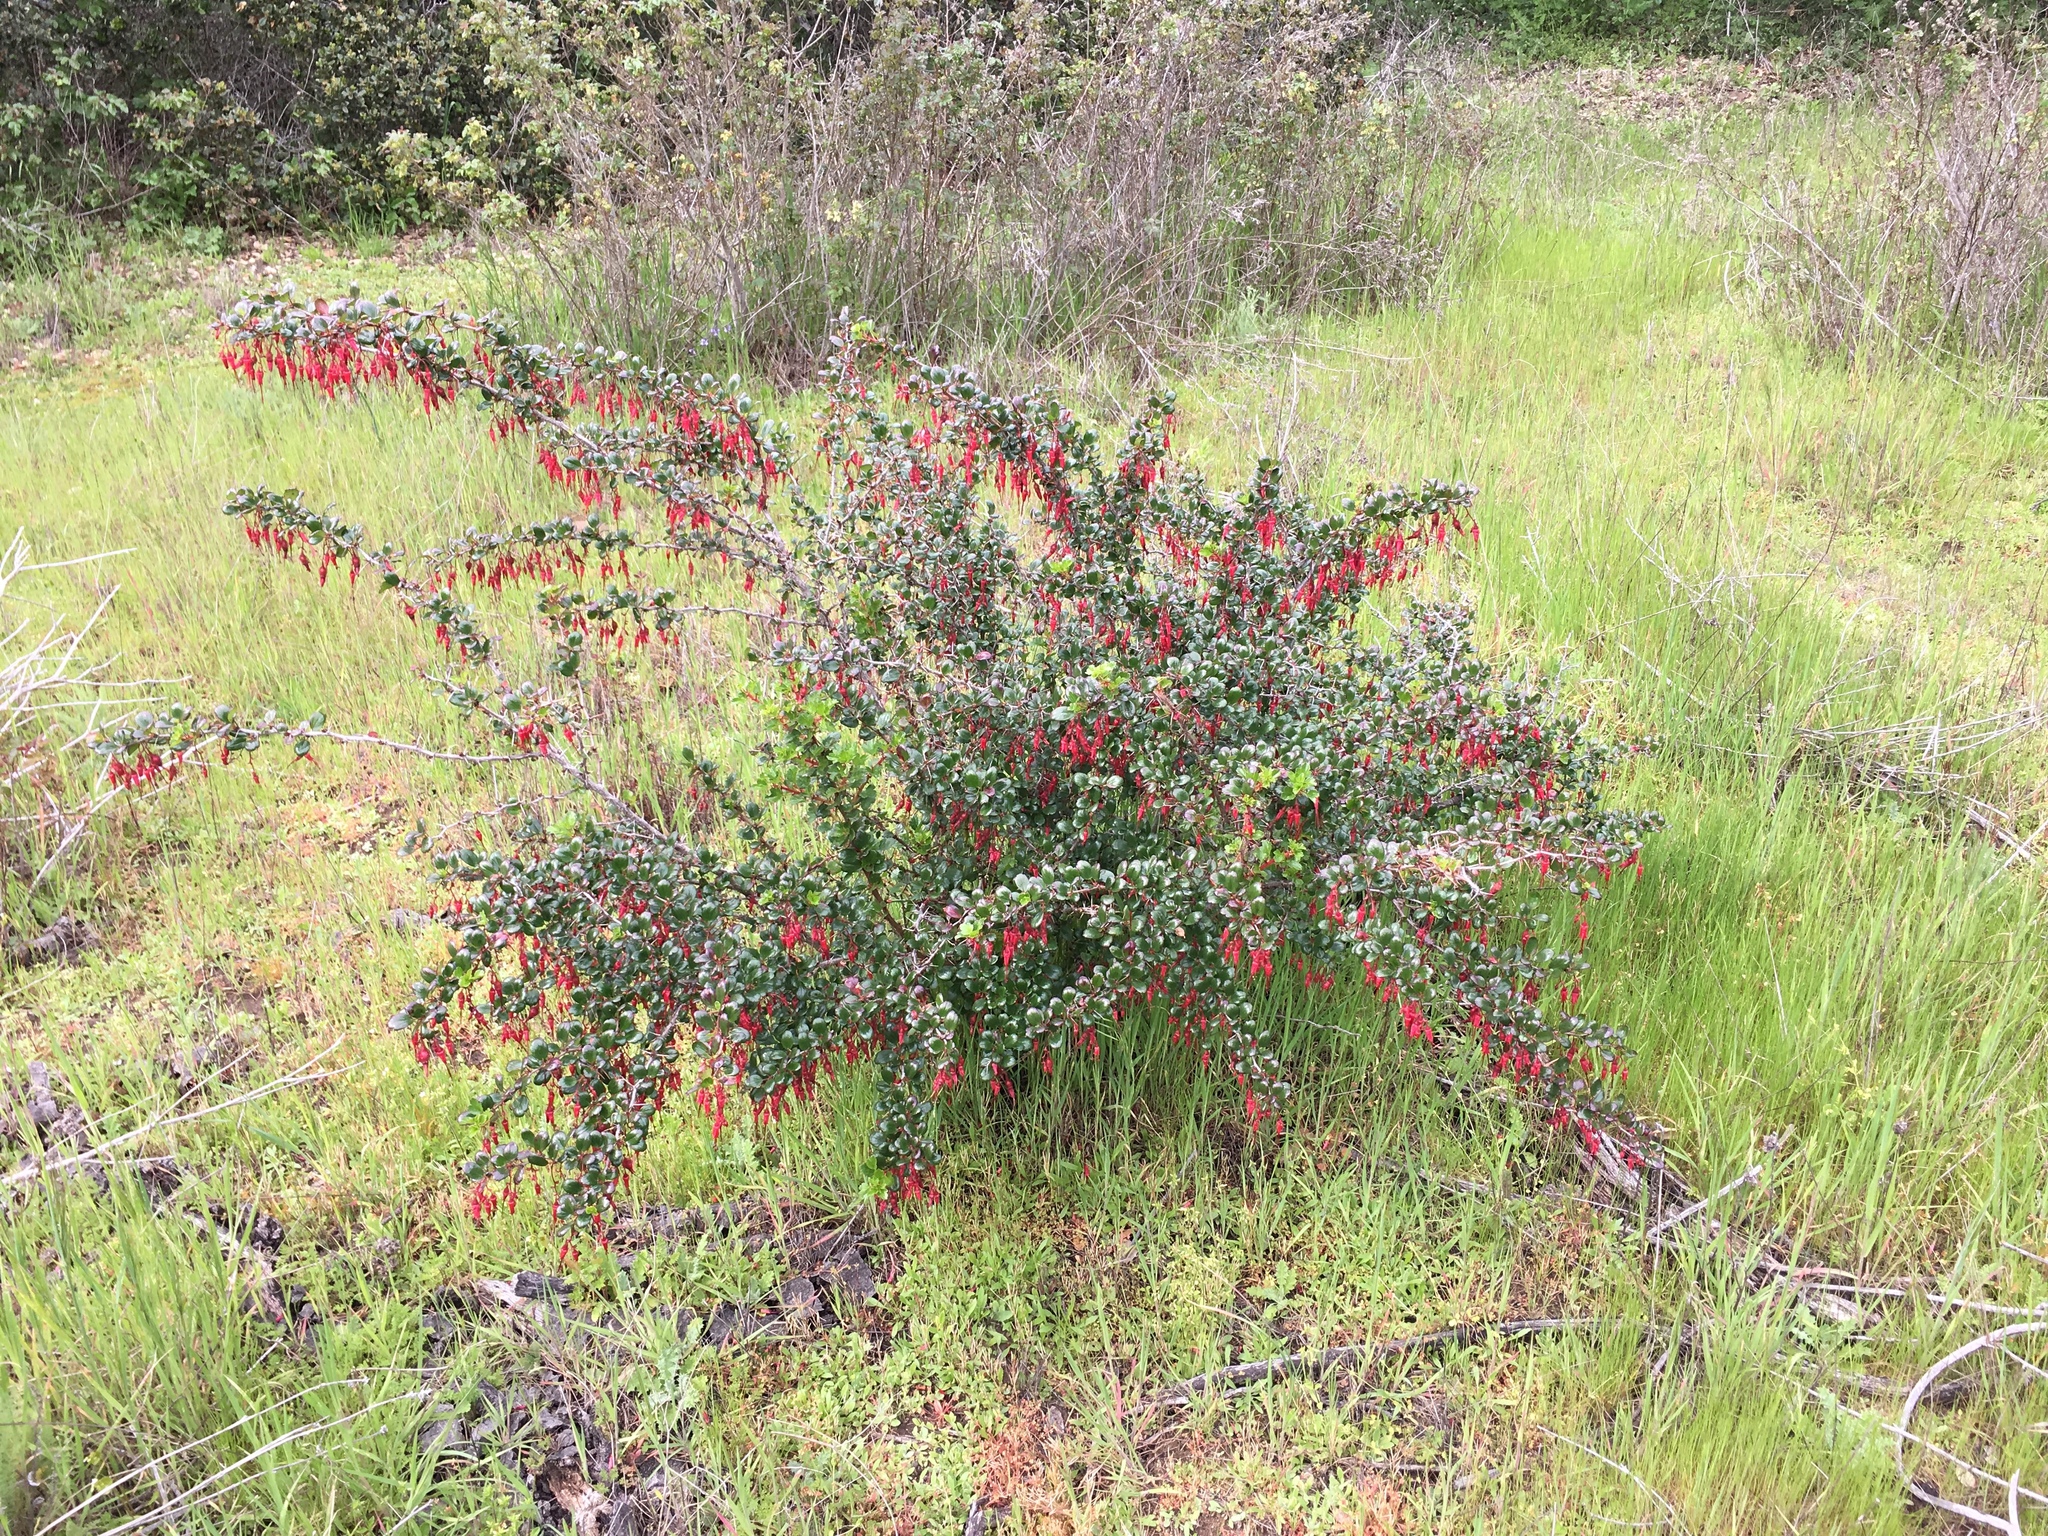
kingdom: Plantae
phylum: Tracheophyta
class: Magnoliopsida
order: Saxifragales
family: Grossulariaceae
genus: Ribes
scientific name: Ribes speciosum
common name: Fuchsia-flower gooseberry
